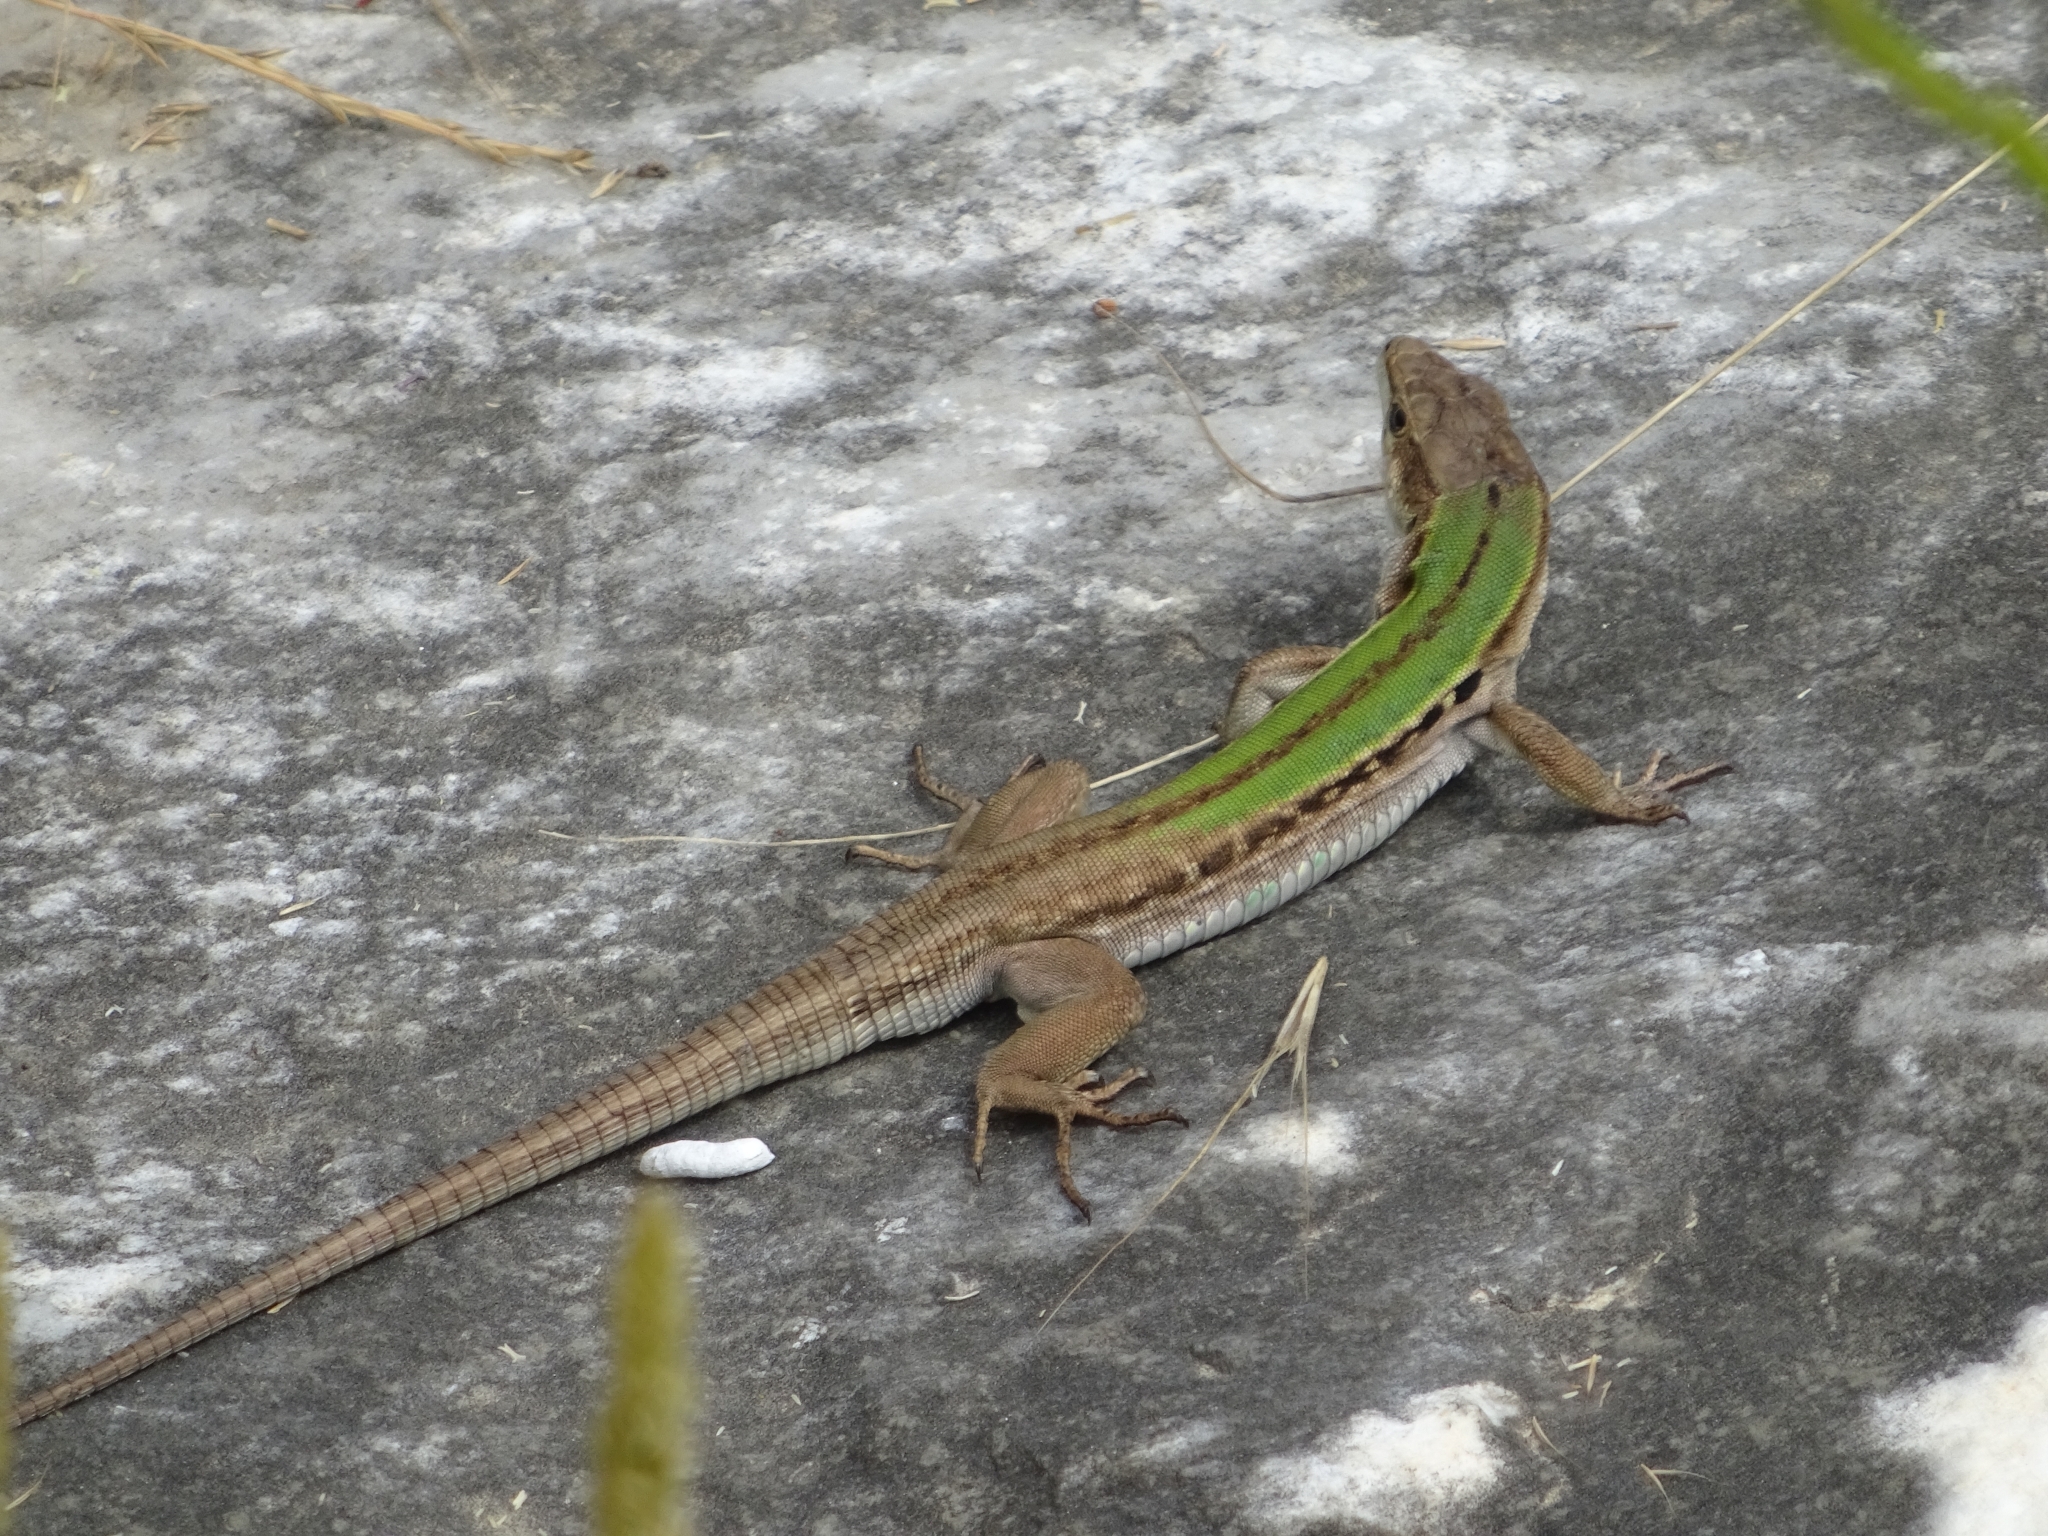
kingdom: Animalia
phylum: Chordata
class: Squamata
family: Lacertidae
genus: Podarcis
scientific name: Podarcis siculus
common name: Italian wall lizard
